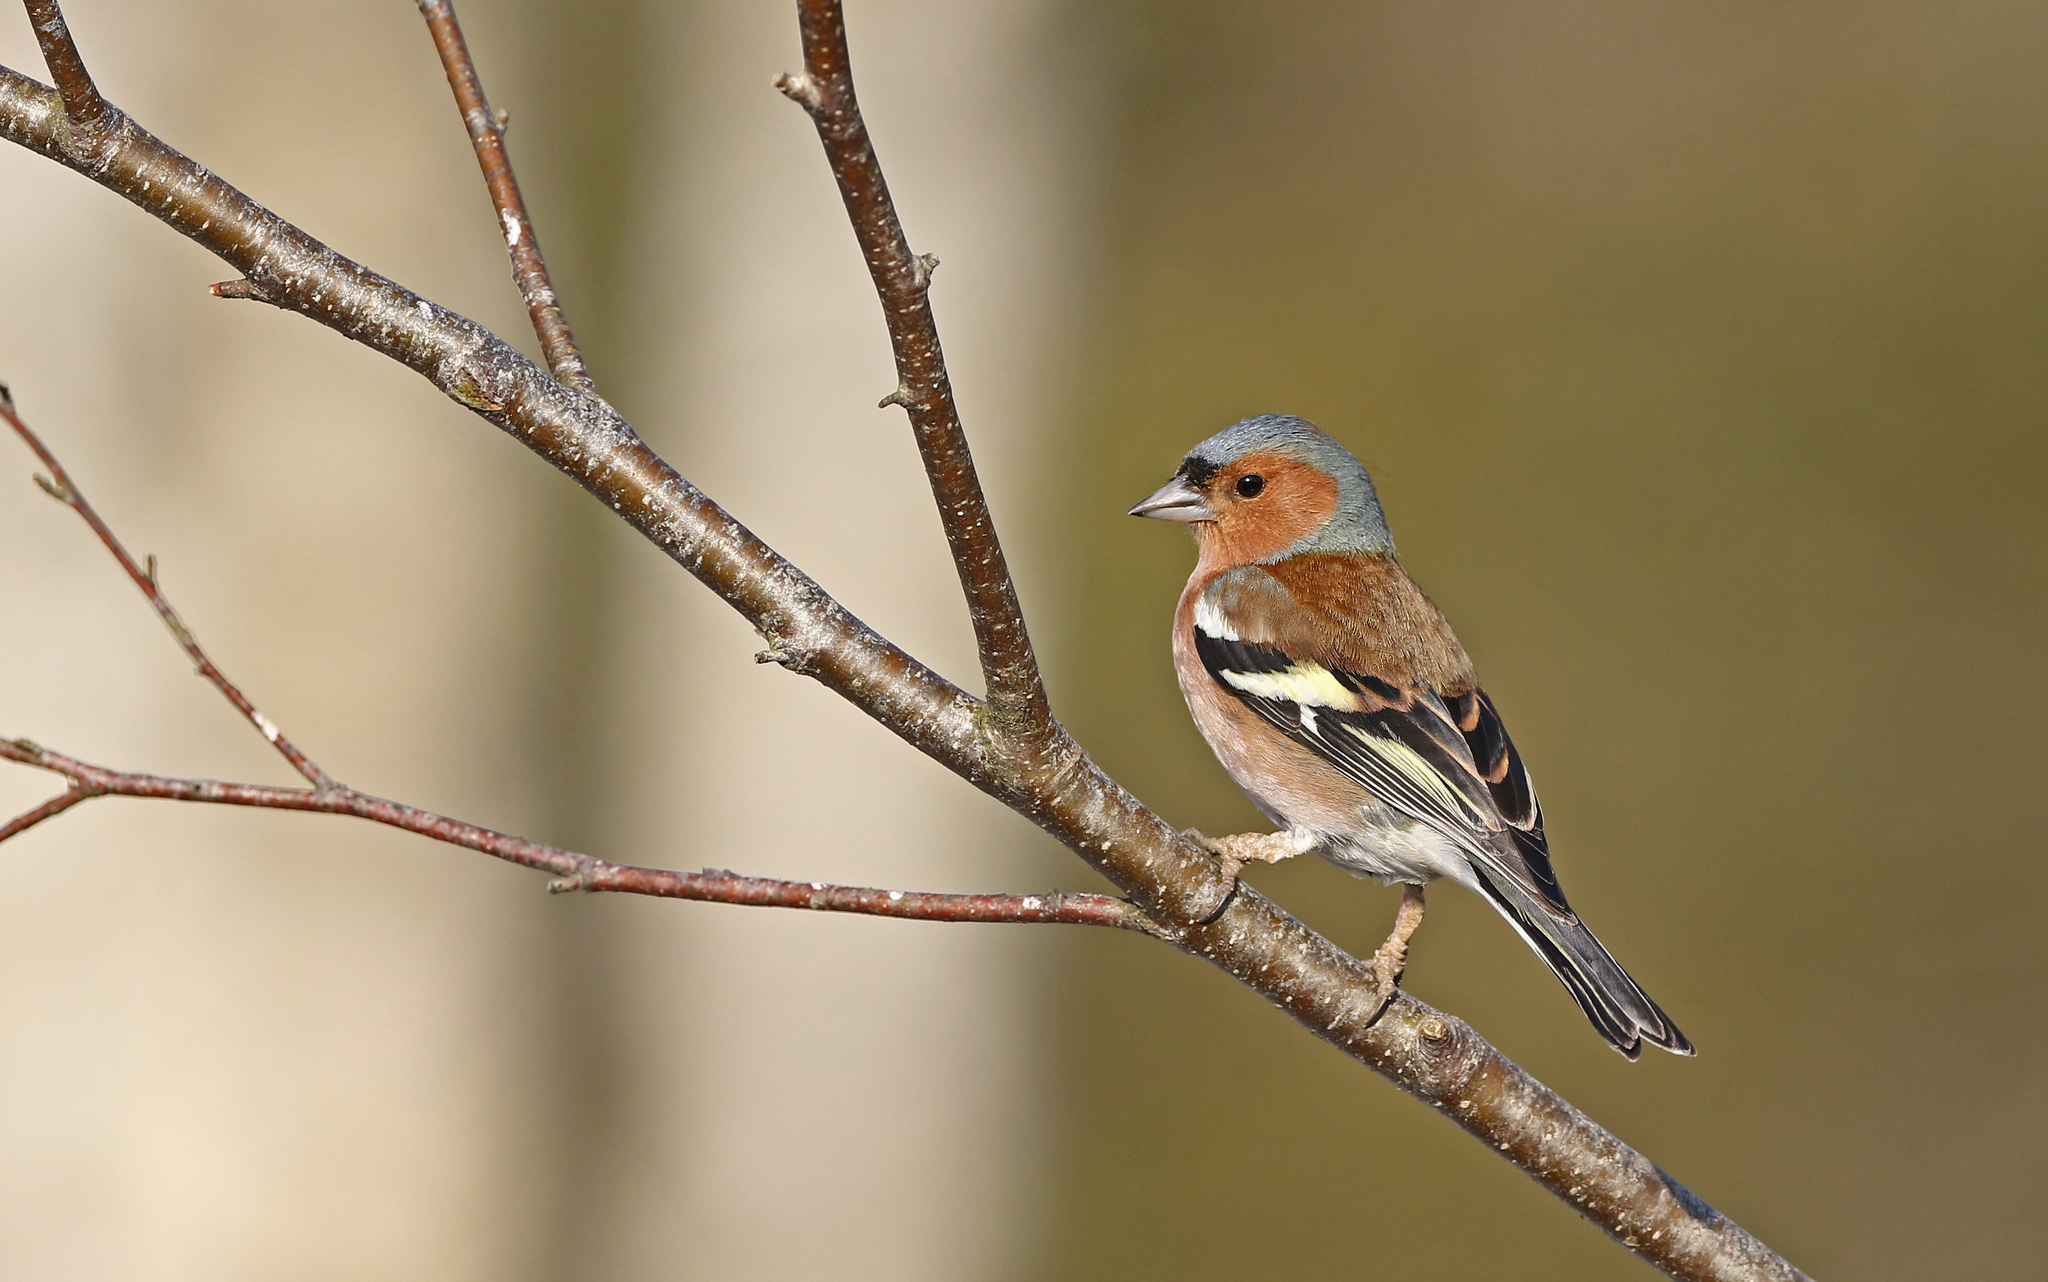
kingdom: Animalia
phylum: Chordata
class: Aves
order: Passeriformes
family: Fringillidae
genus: Fringilla
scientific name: Fringilla coelebs
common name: Common chaffinch
